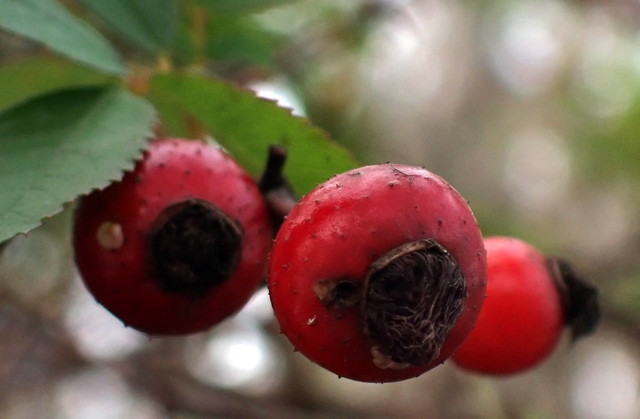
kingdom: Plantae
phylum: Tracheophyta
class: Magnoliopsida
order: Rosales
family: Rosaceae
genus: Rosa
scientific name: Rosa palustris
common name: Swamp rose
